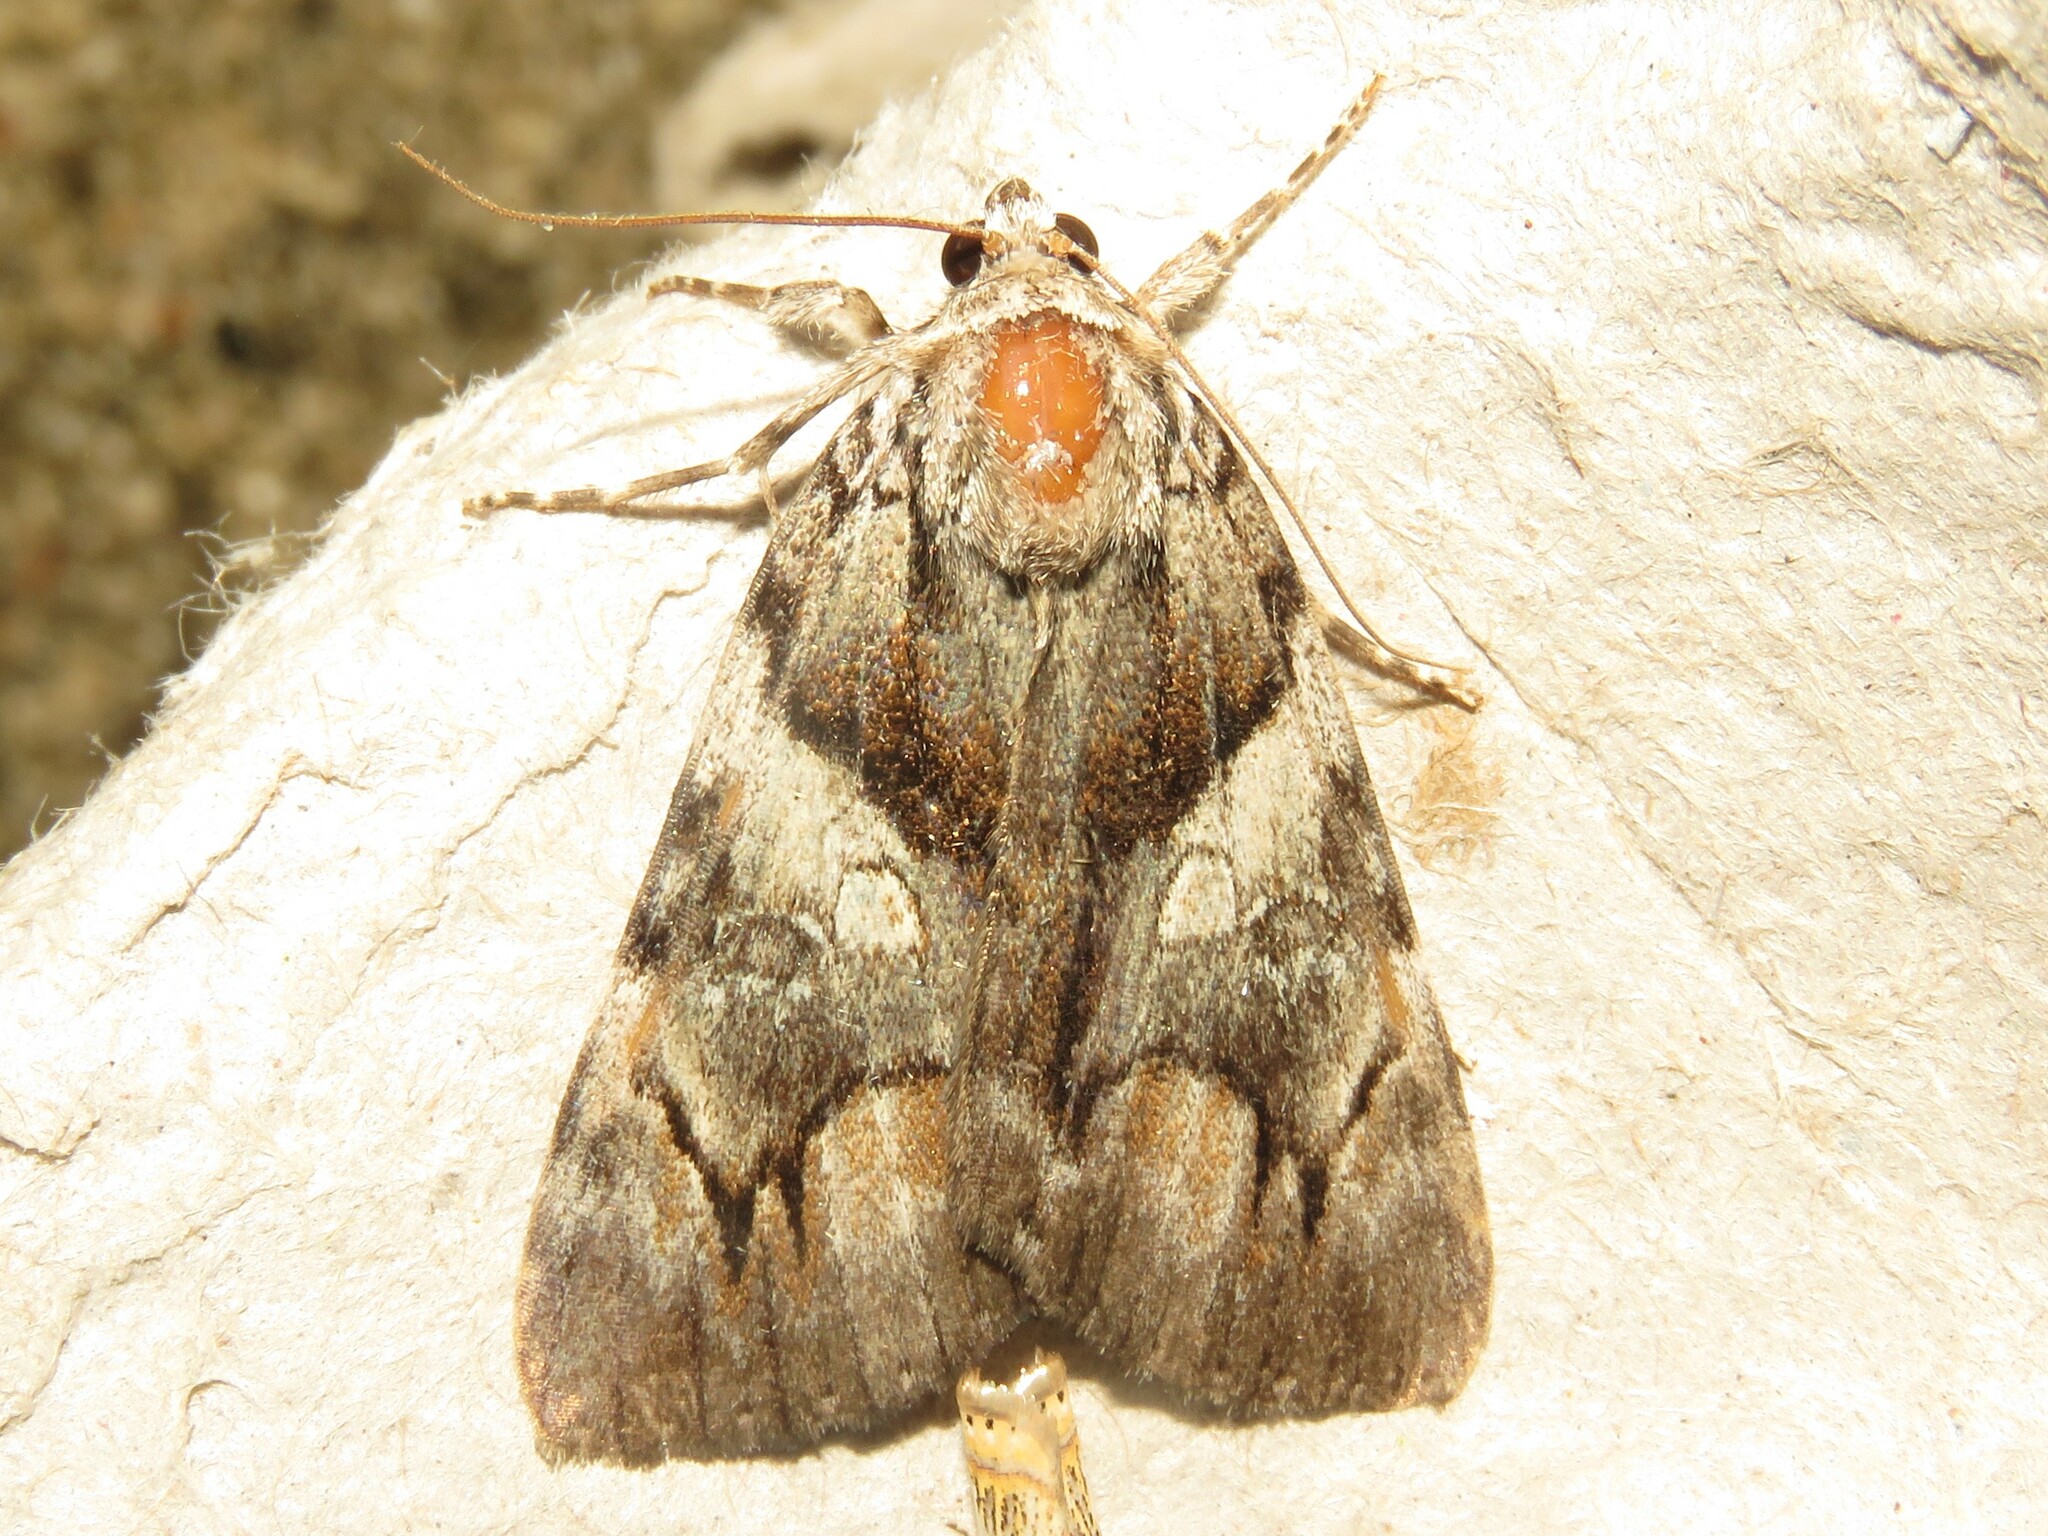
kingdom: Animalia
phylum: Arthropoda
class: Insecta
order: Lepidoptera
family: Erebidae
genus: Catocala
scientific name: Catocala blandula
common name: Charming underwing
